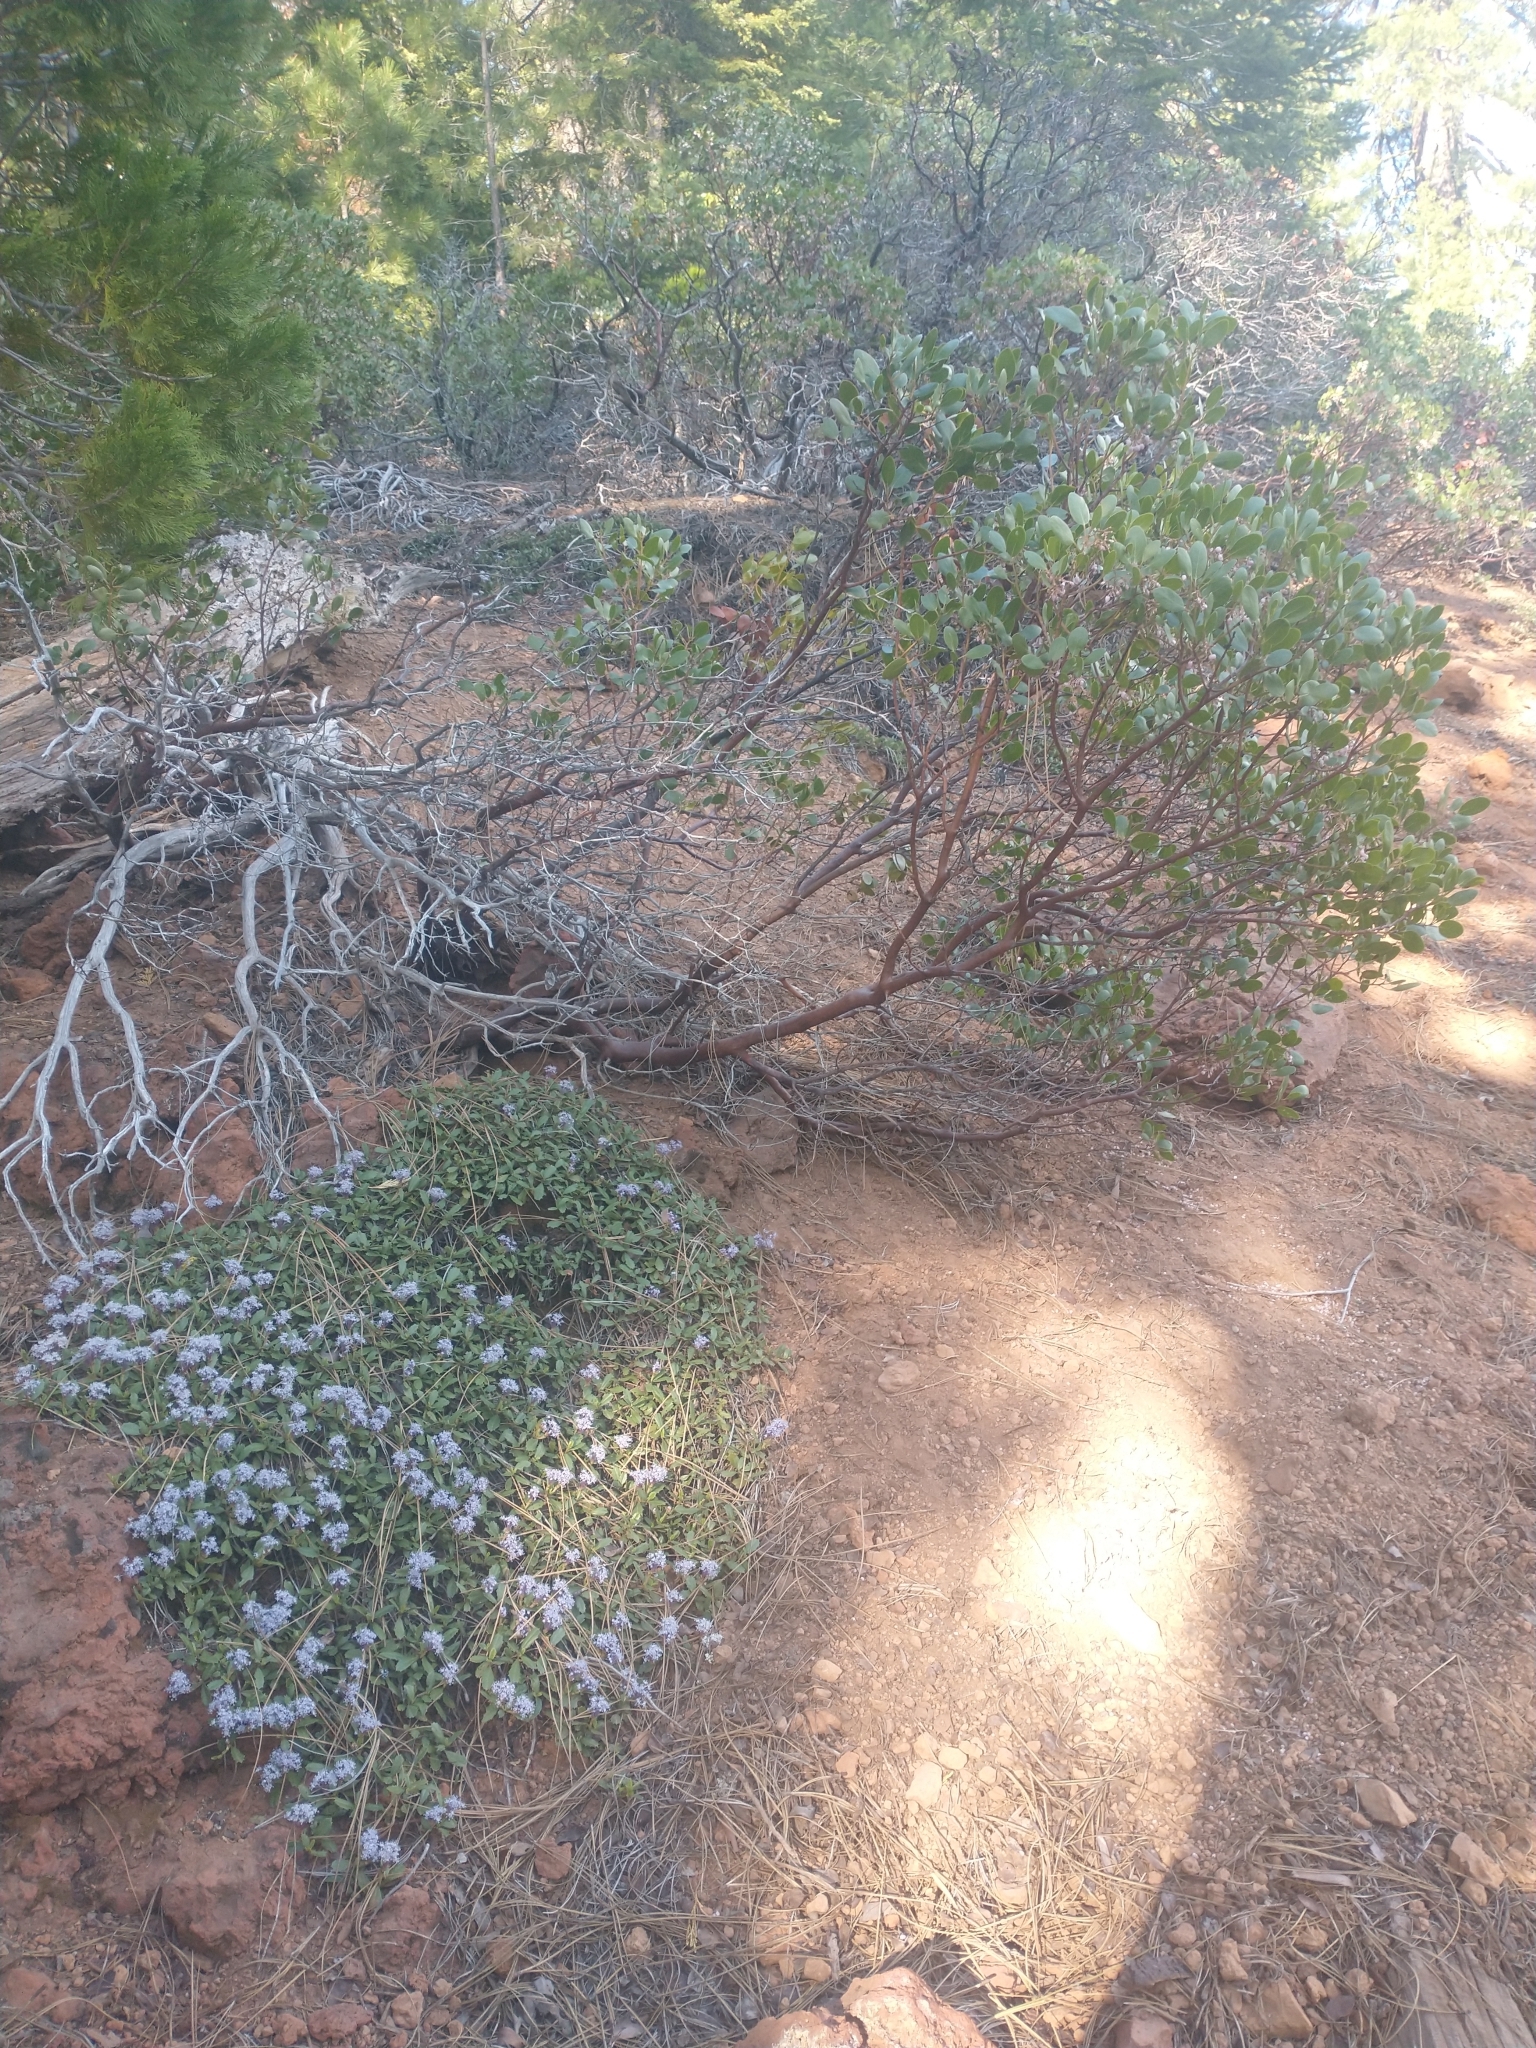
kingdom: Plantae
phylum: Tracheophyta
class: Magnoliopsida
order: Ericales
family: Ericaceae
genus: Arctostaphylos
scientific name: Arctostaphylos patula
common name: Green-leaf manzanita
